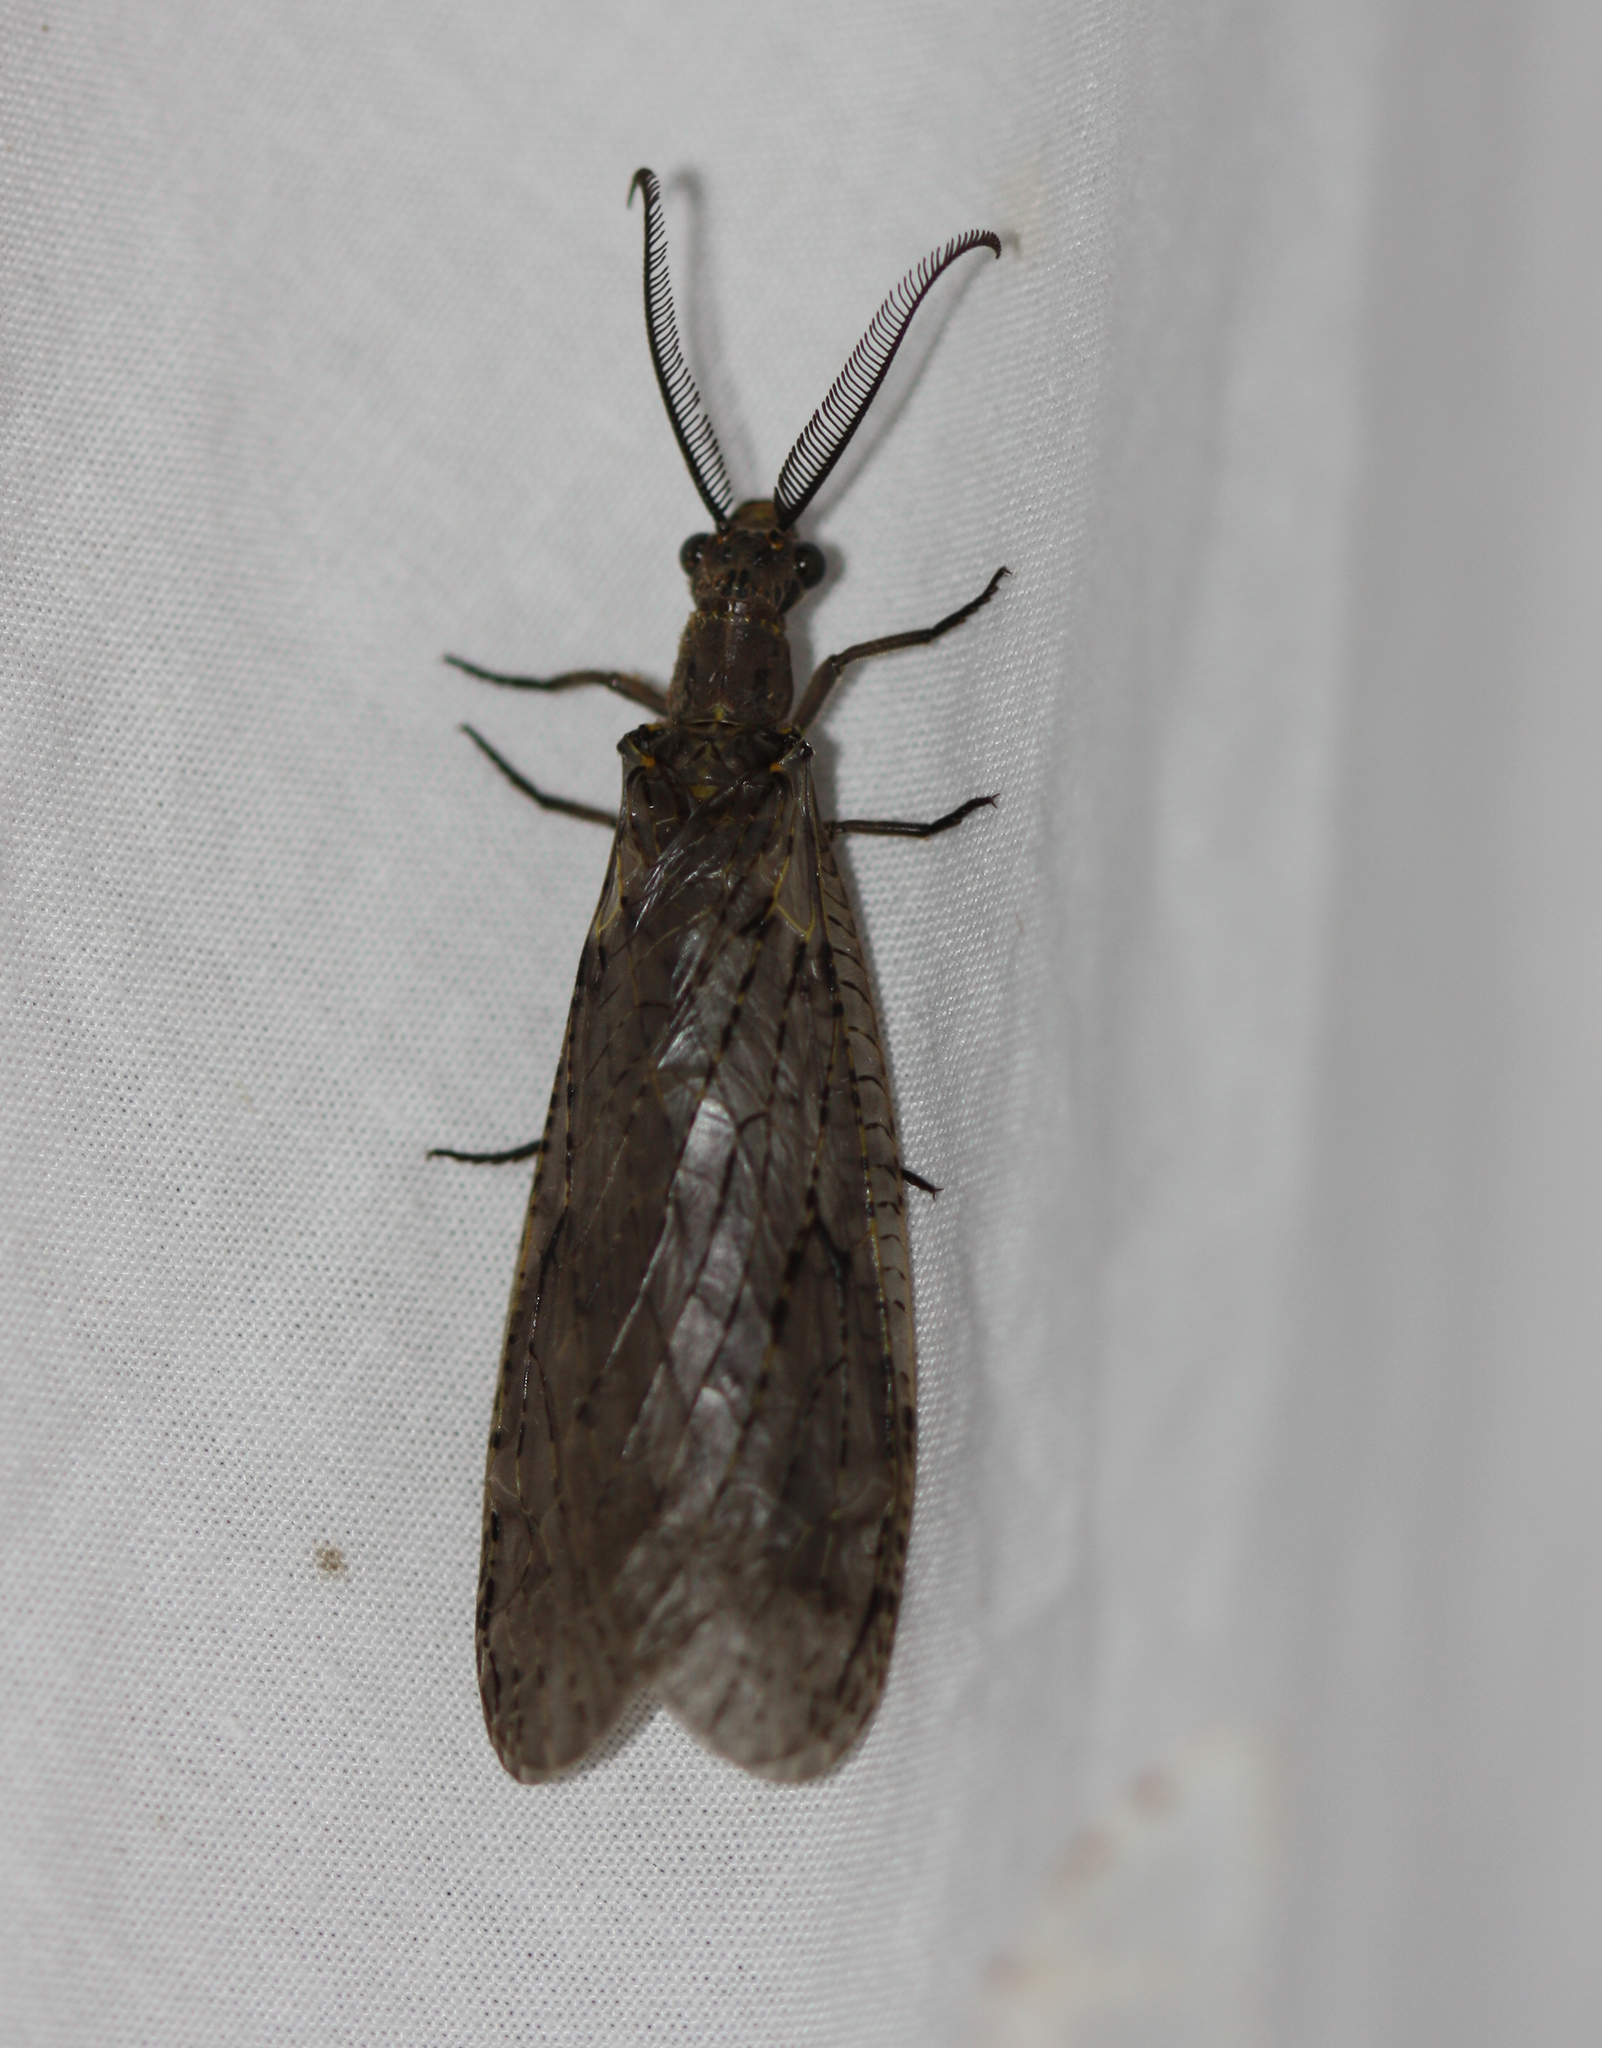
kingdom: Animalia
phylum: Arthropoda
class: Insecta
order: Megaloptera
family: Corydalidae
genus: Chauliodes
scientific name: Chauliodes rastricornis
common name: Spring fishfly
